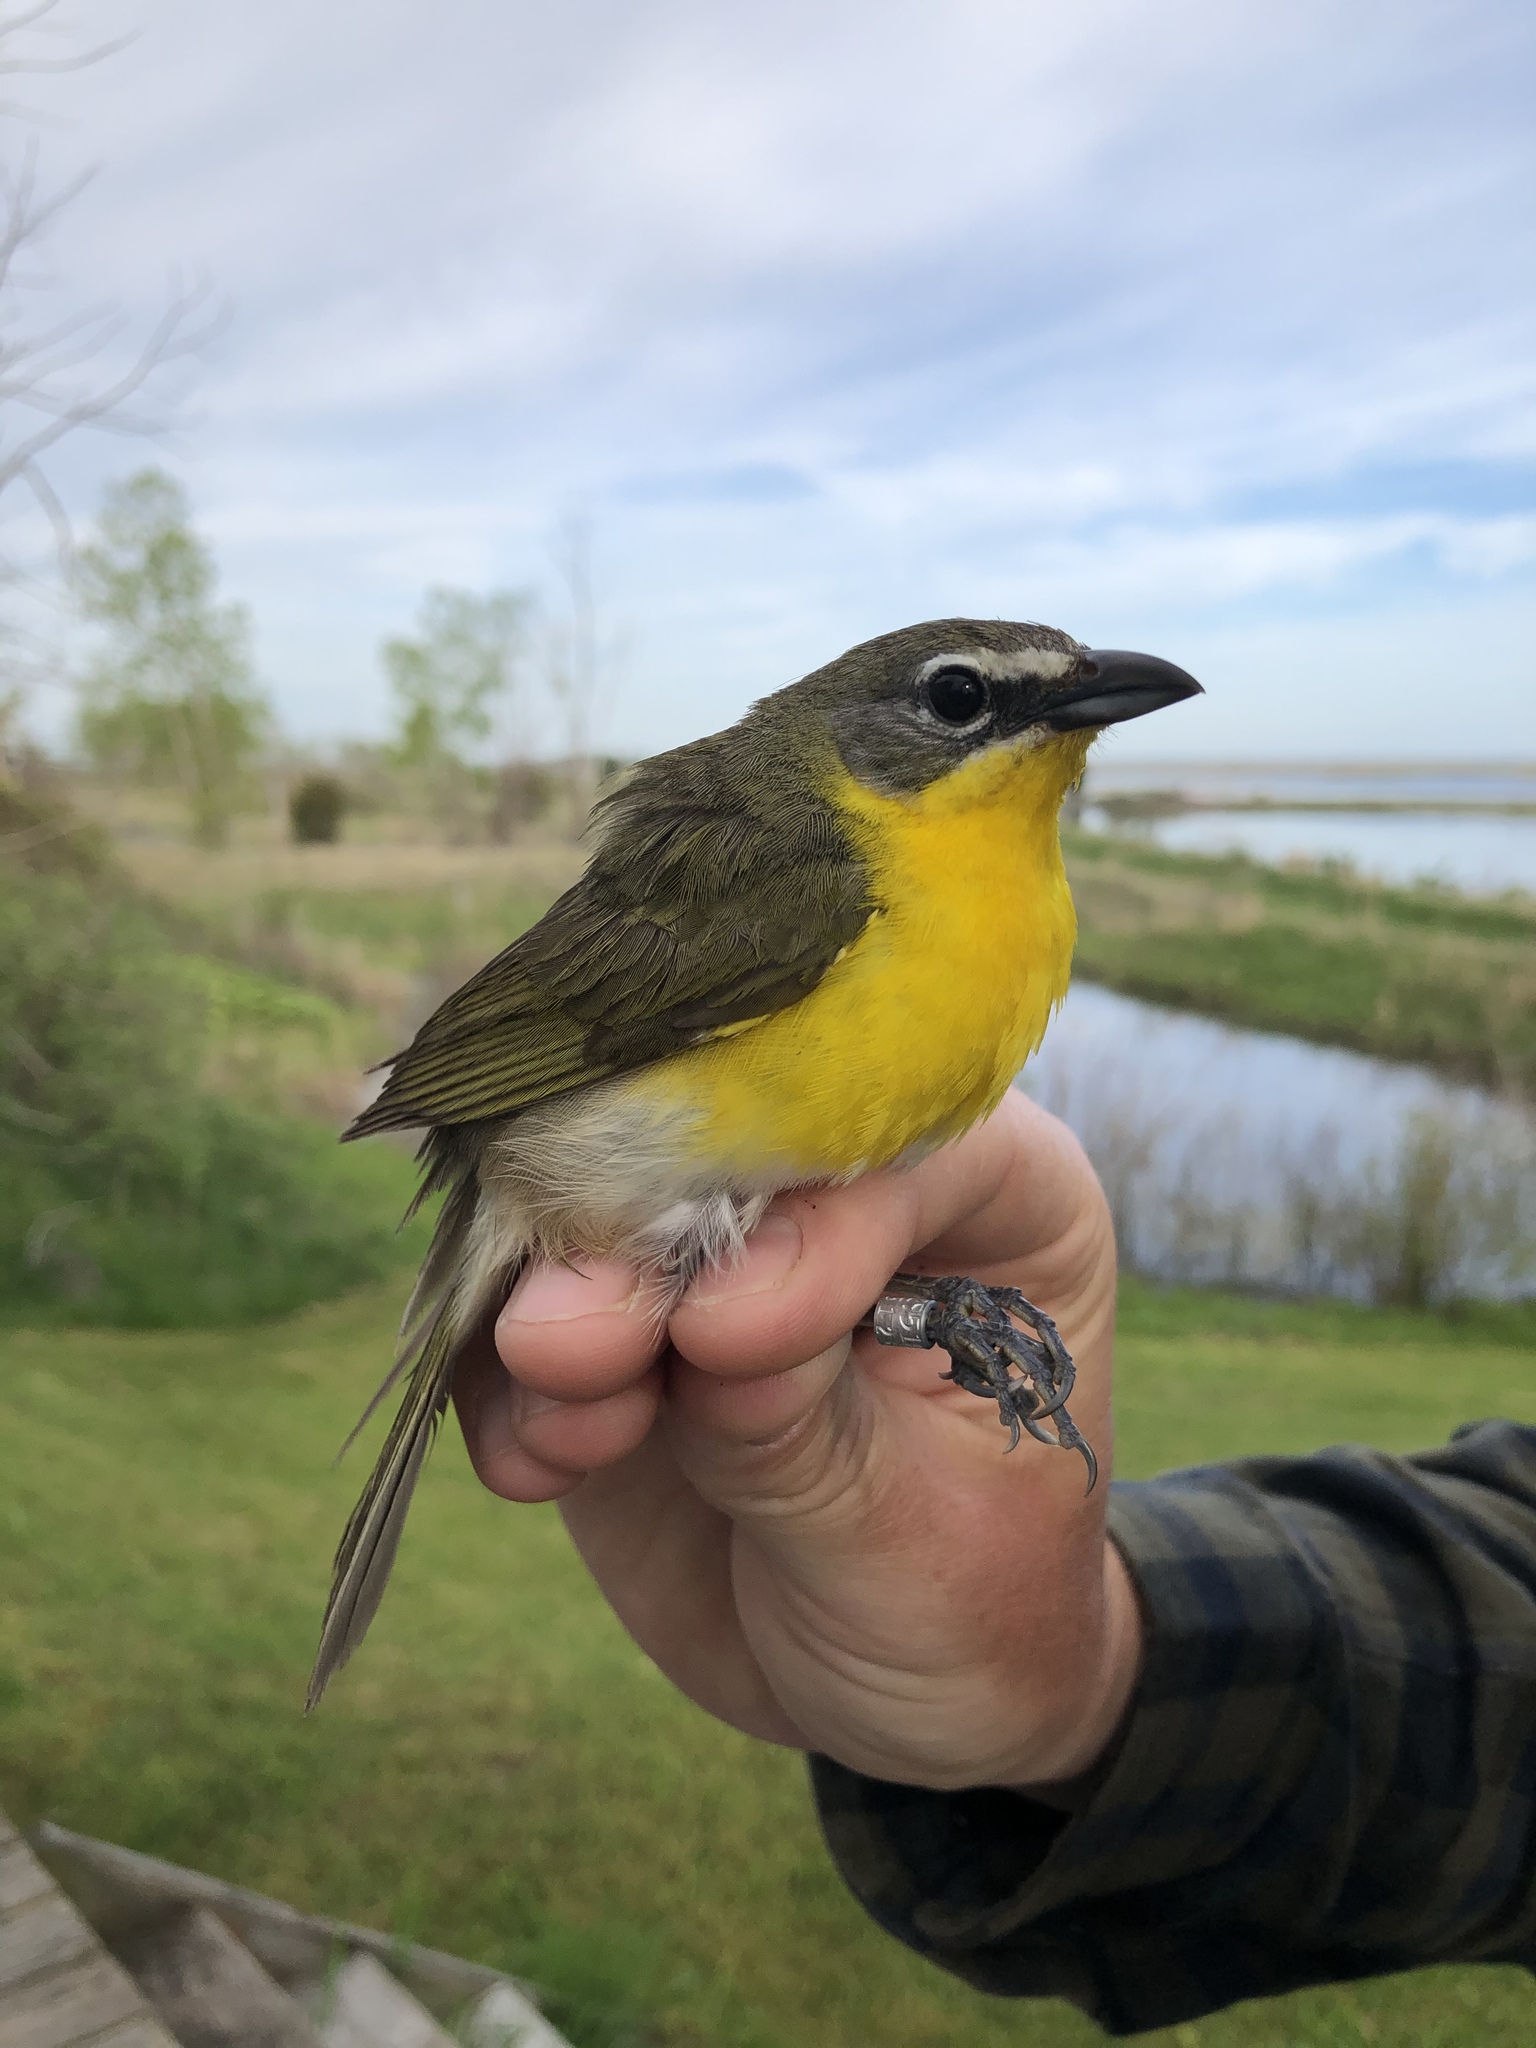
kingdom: Animalia
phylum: Chordata
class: Aves
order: Passeriformes
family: Parulidae
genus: Icteria
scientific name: Icteria virens
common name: Yellow-breasted chat
